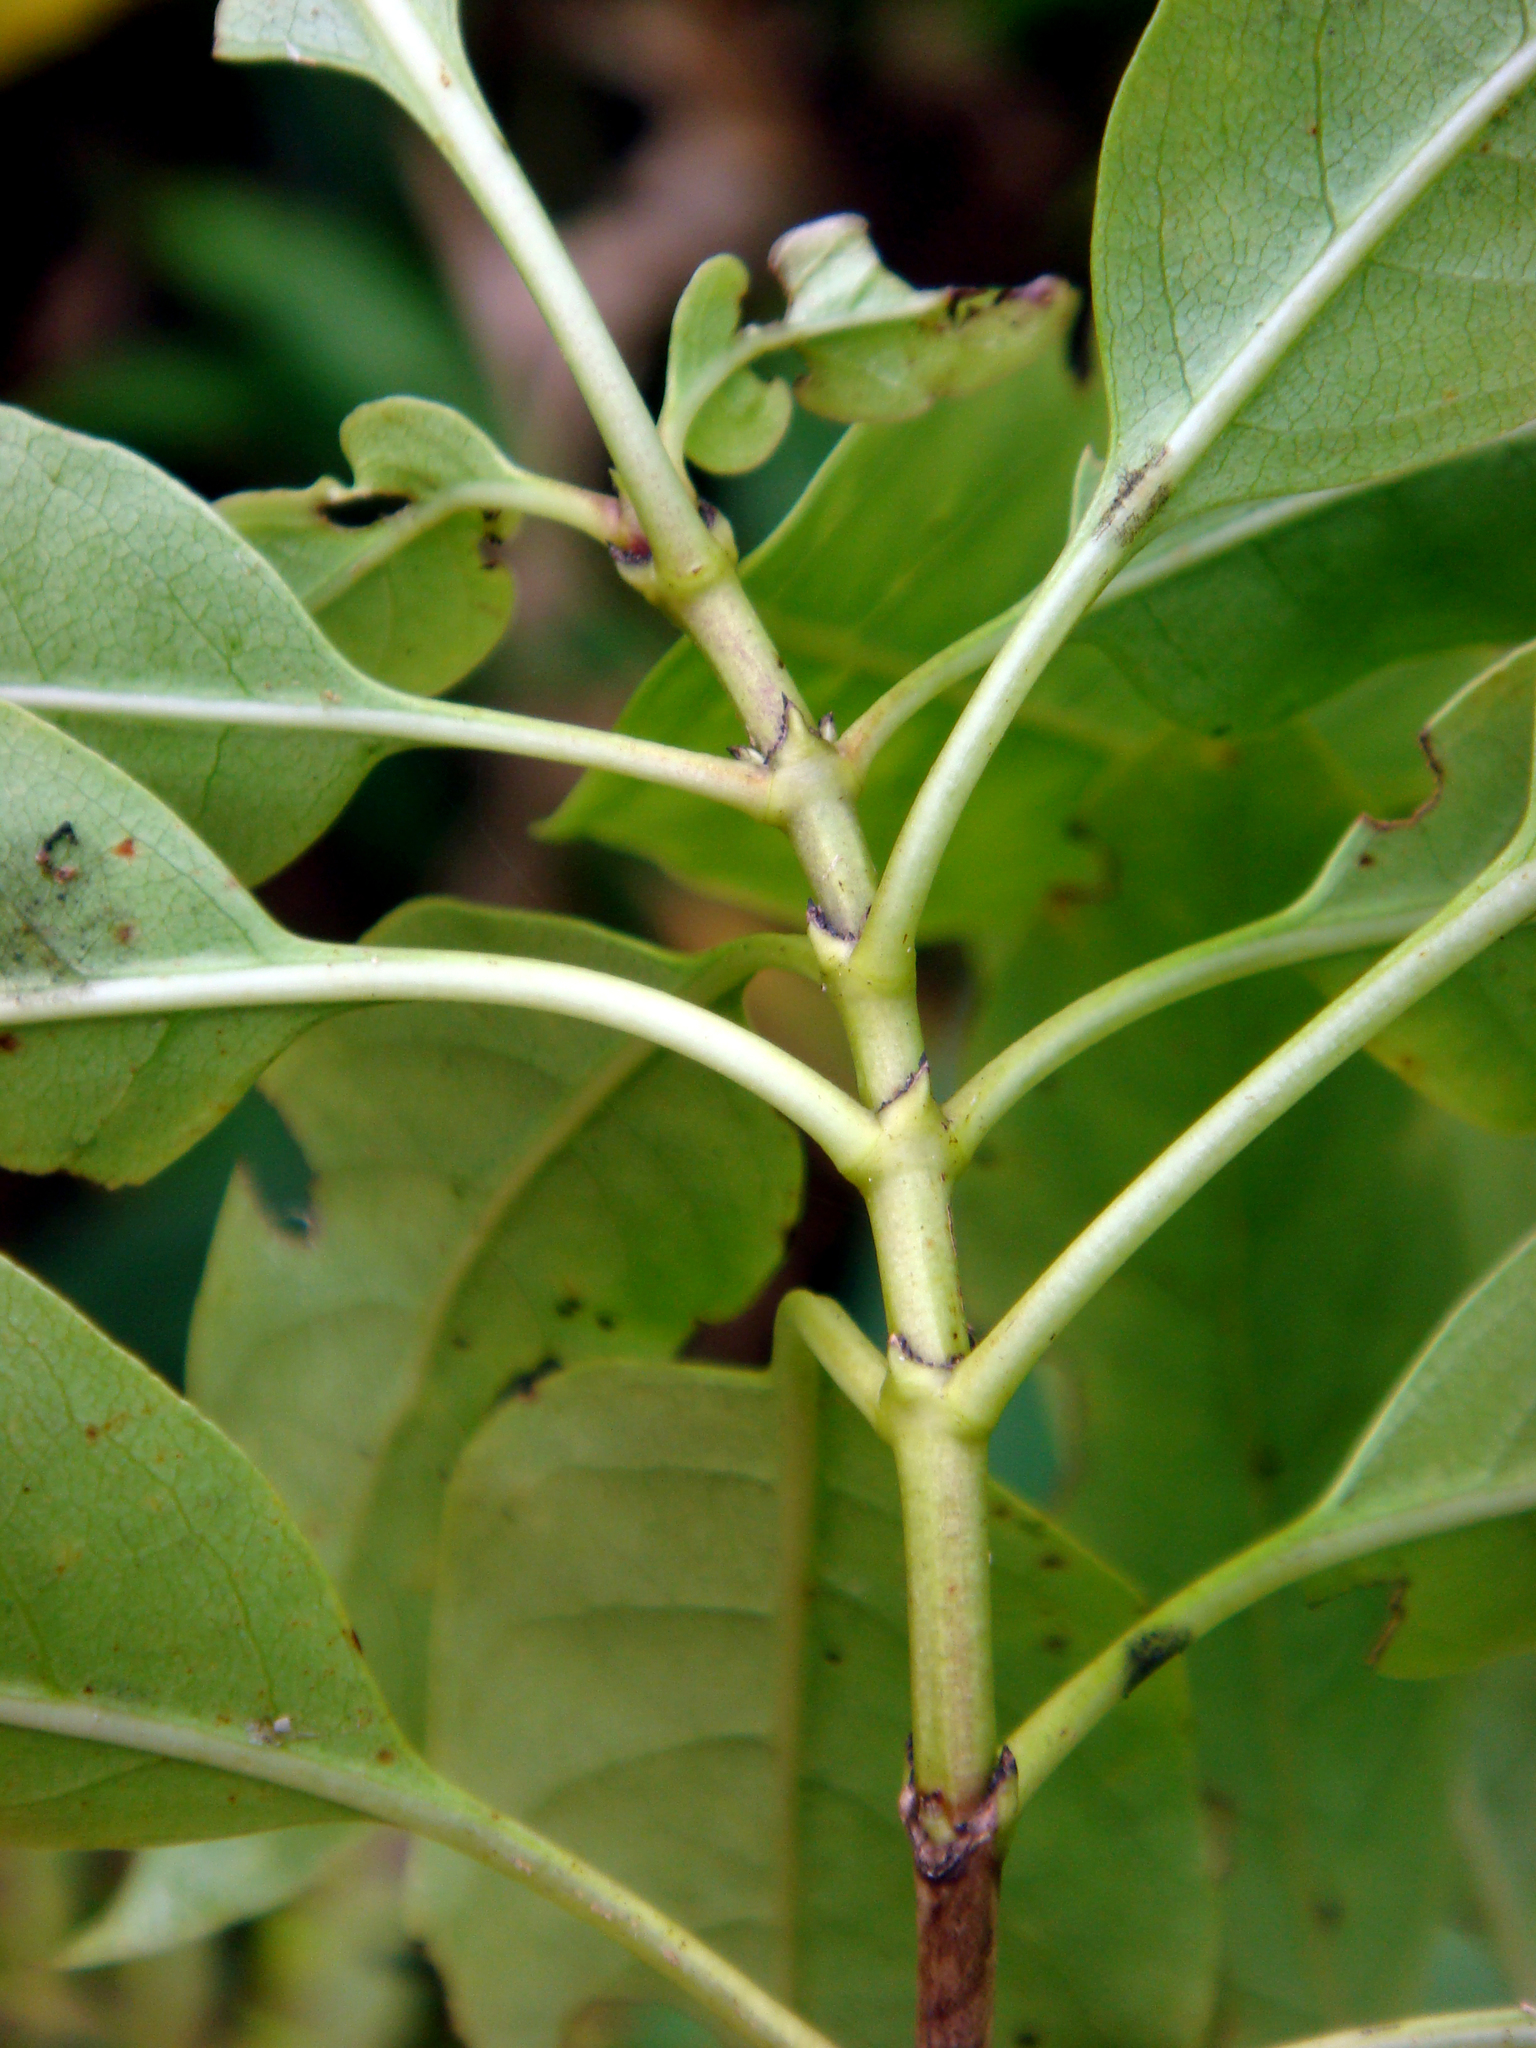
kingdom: Plantae
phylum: Tracheophyta
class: Magnoliopsida
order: Gentianales
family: Rubiaceae
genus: Coprosma
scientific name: Coprosma laevigata
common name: Rarotongan coprosma
